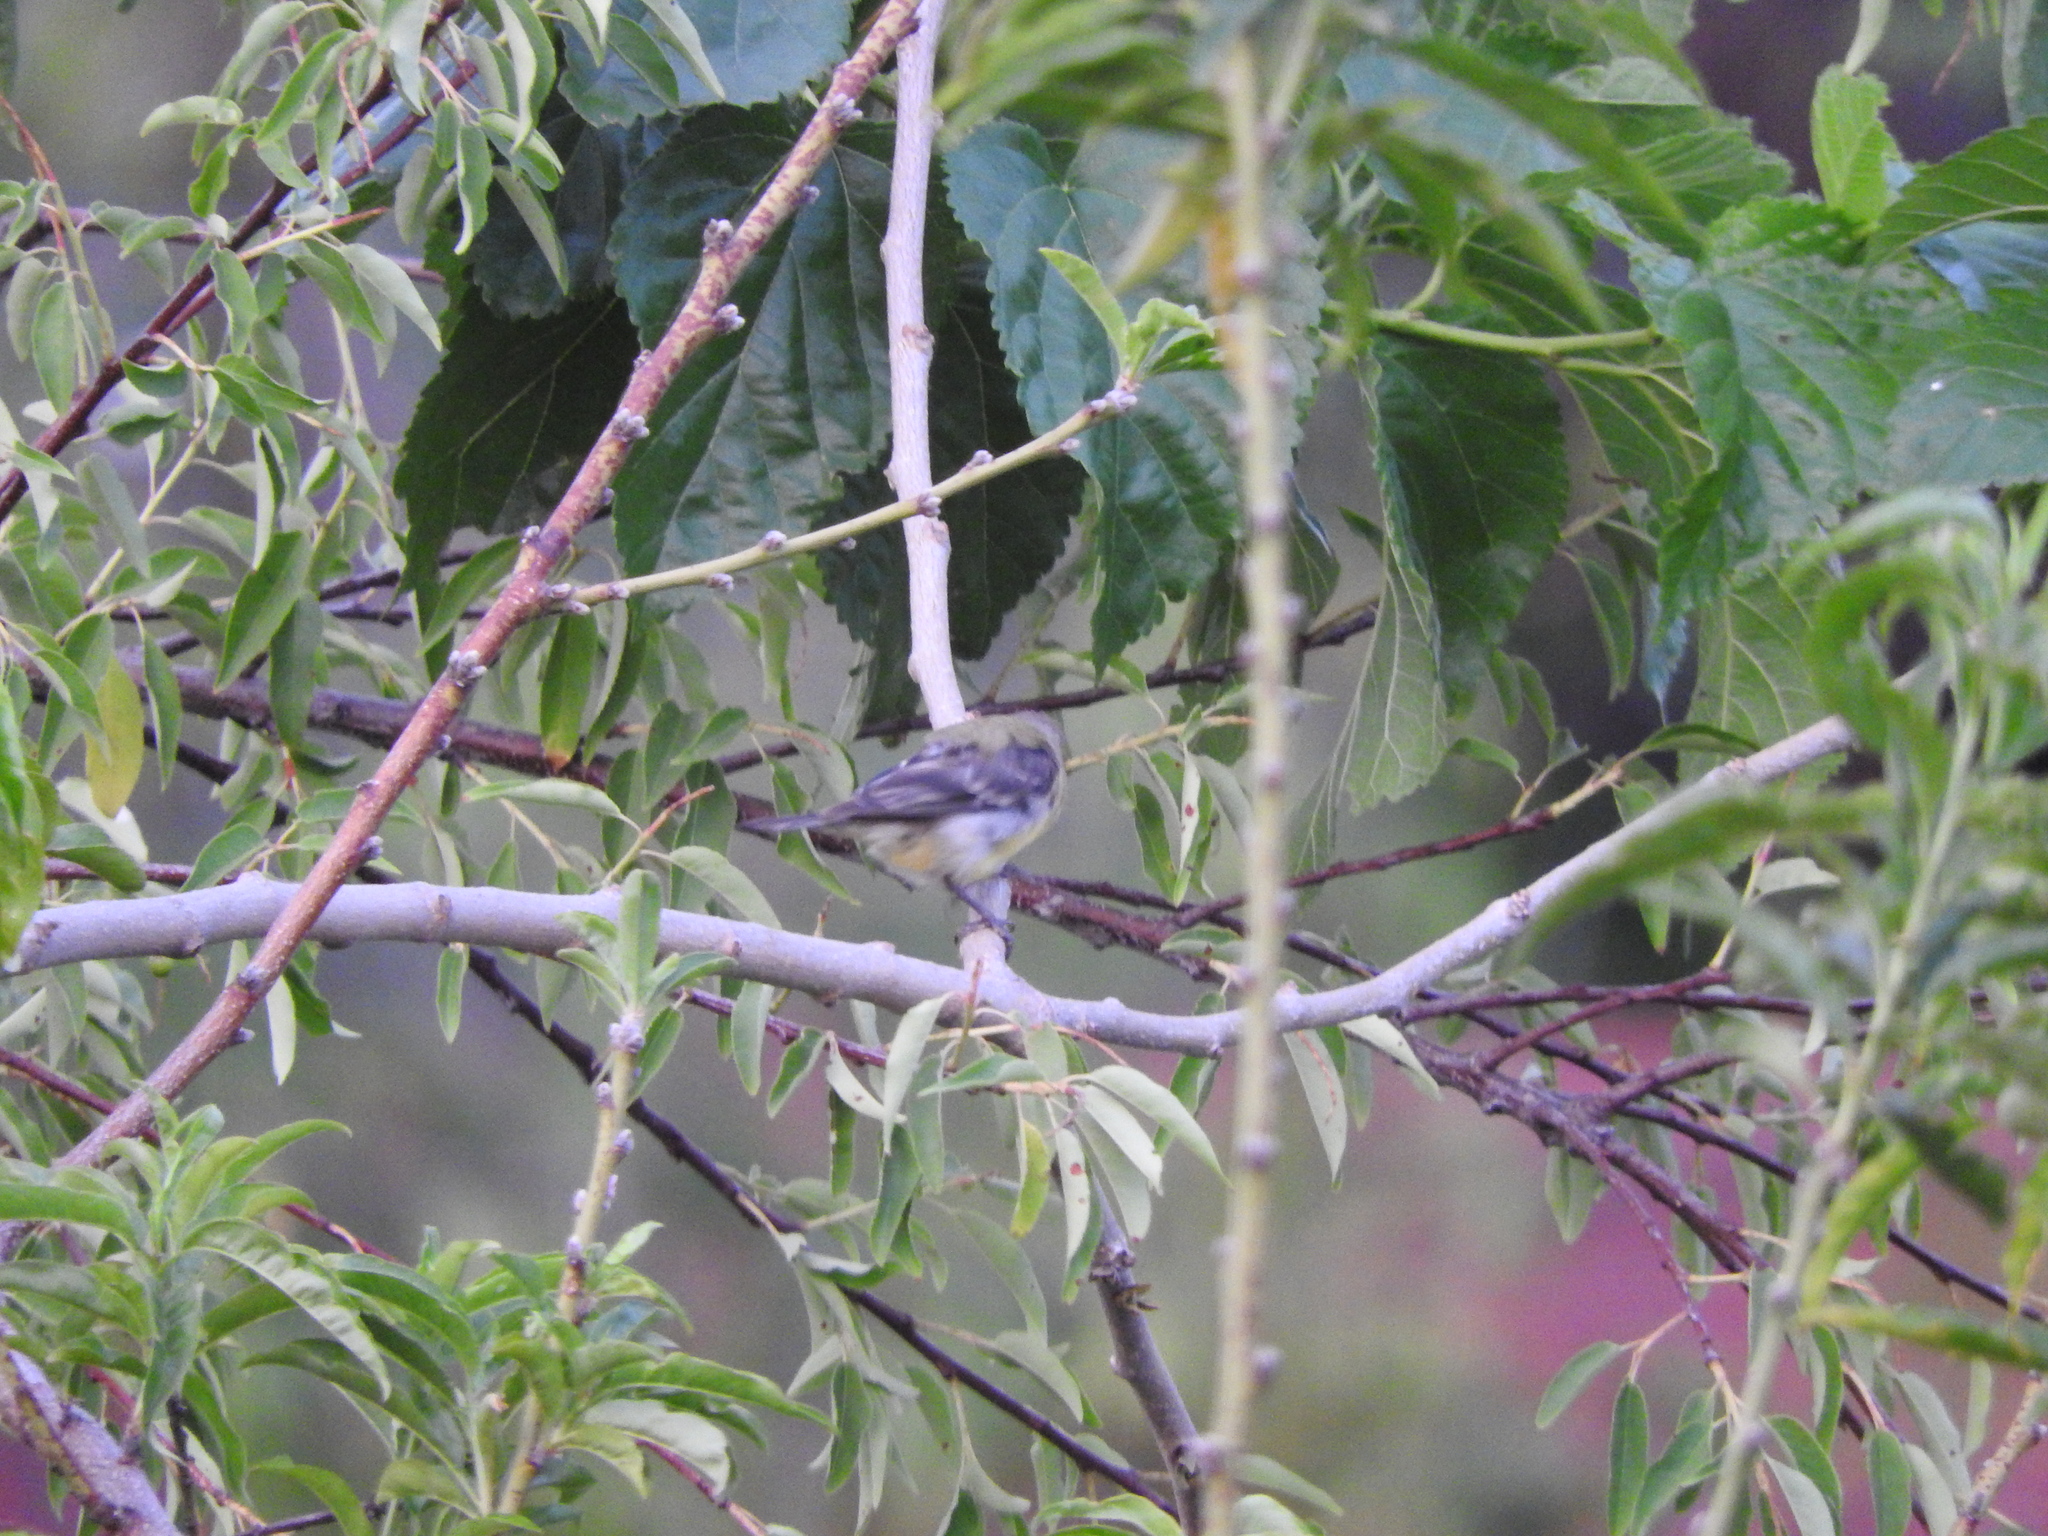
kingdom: Animalia
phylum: Chordata
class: Aves
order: Passeriformes
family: Fringillidae
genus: Spinus
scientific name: Spinus psaltria
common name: Lesser goldfinch
